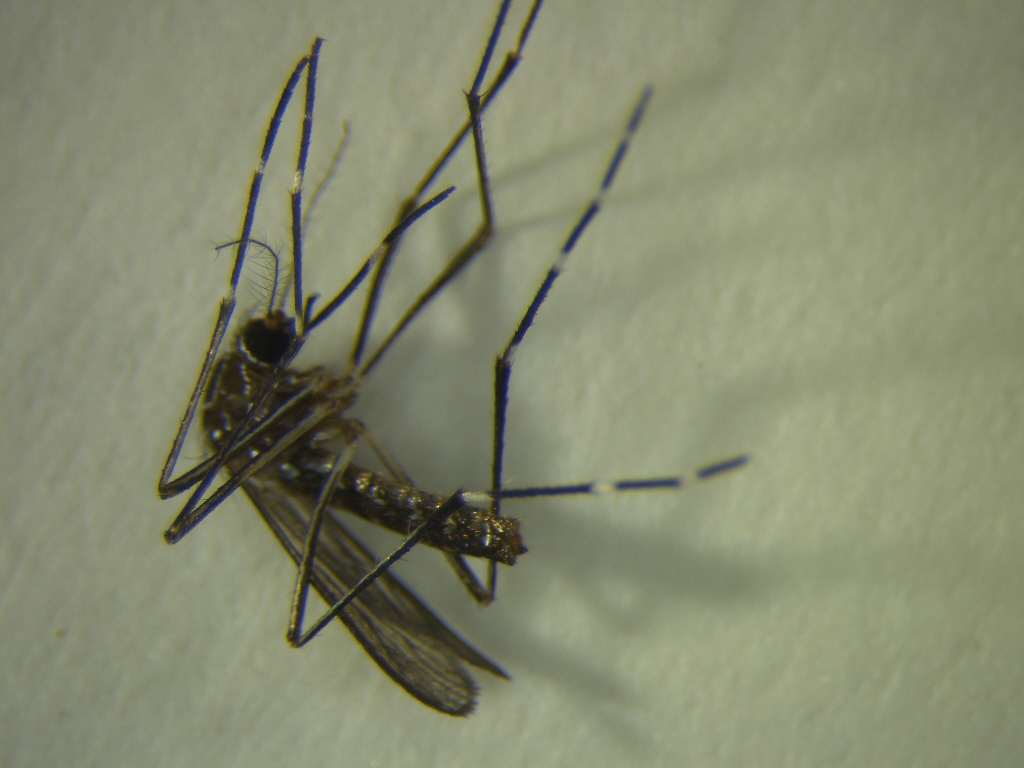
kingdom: Animalia
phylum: Arthropoda
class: Insecta
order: Diptera
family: Culicidae
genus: Aedes
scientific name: Aedes notoscriptus
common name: Australian backyard mosquito
